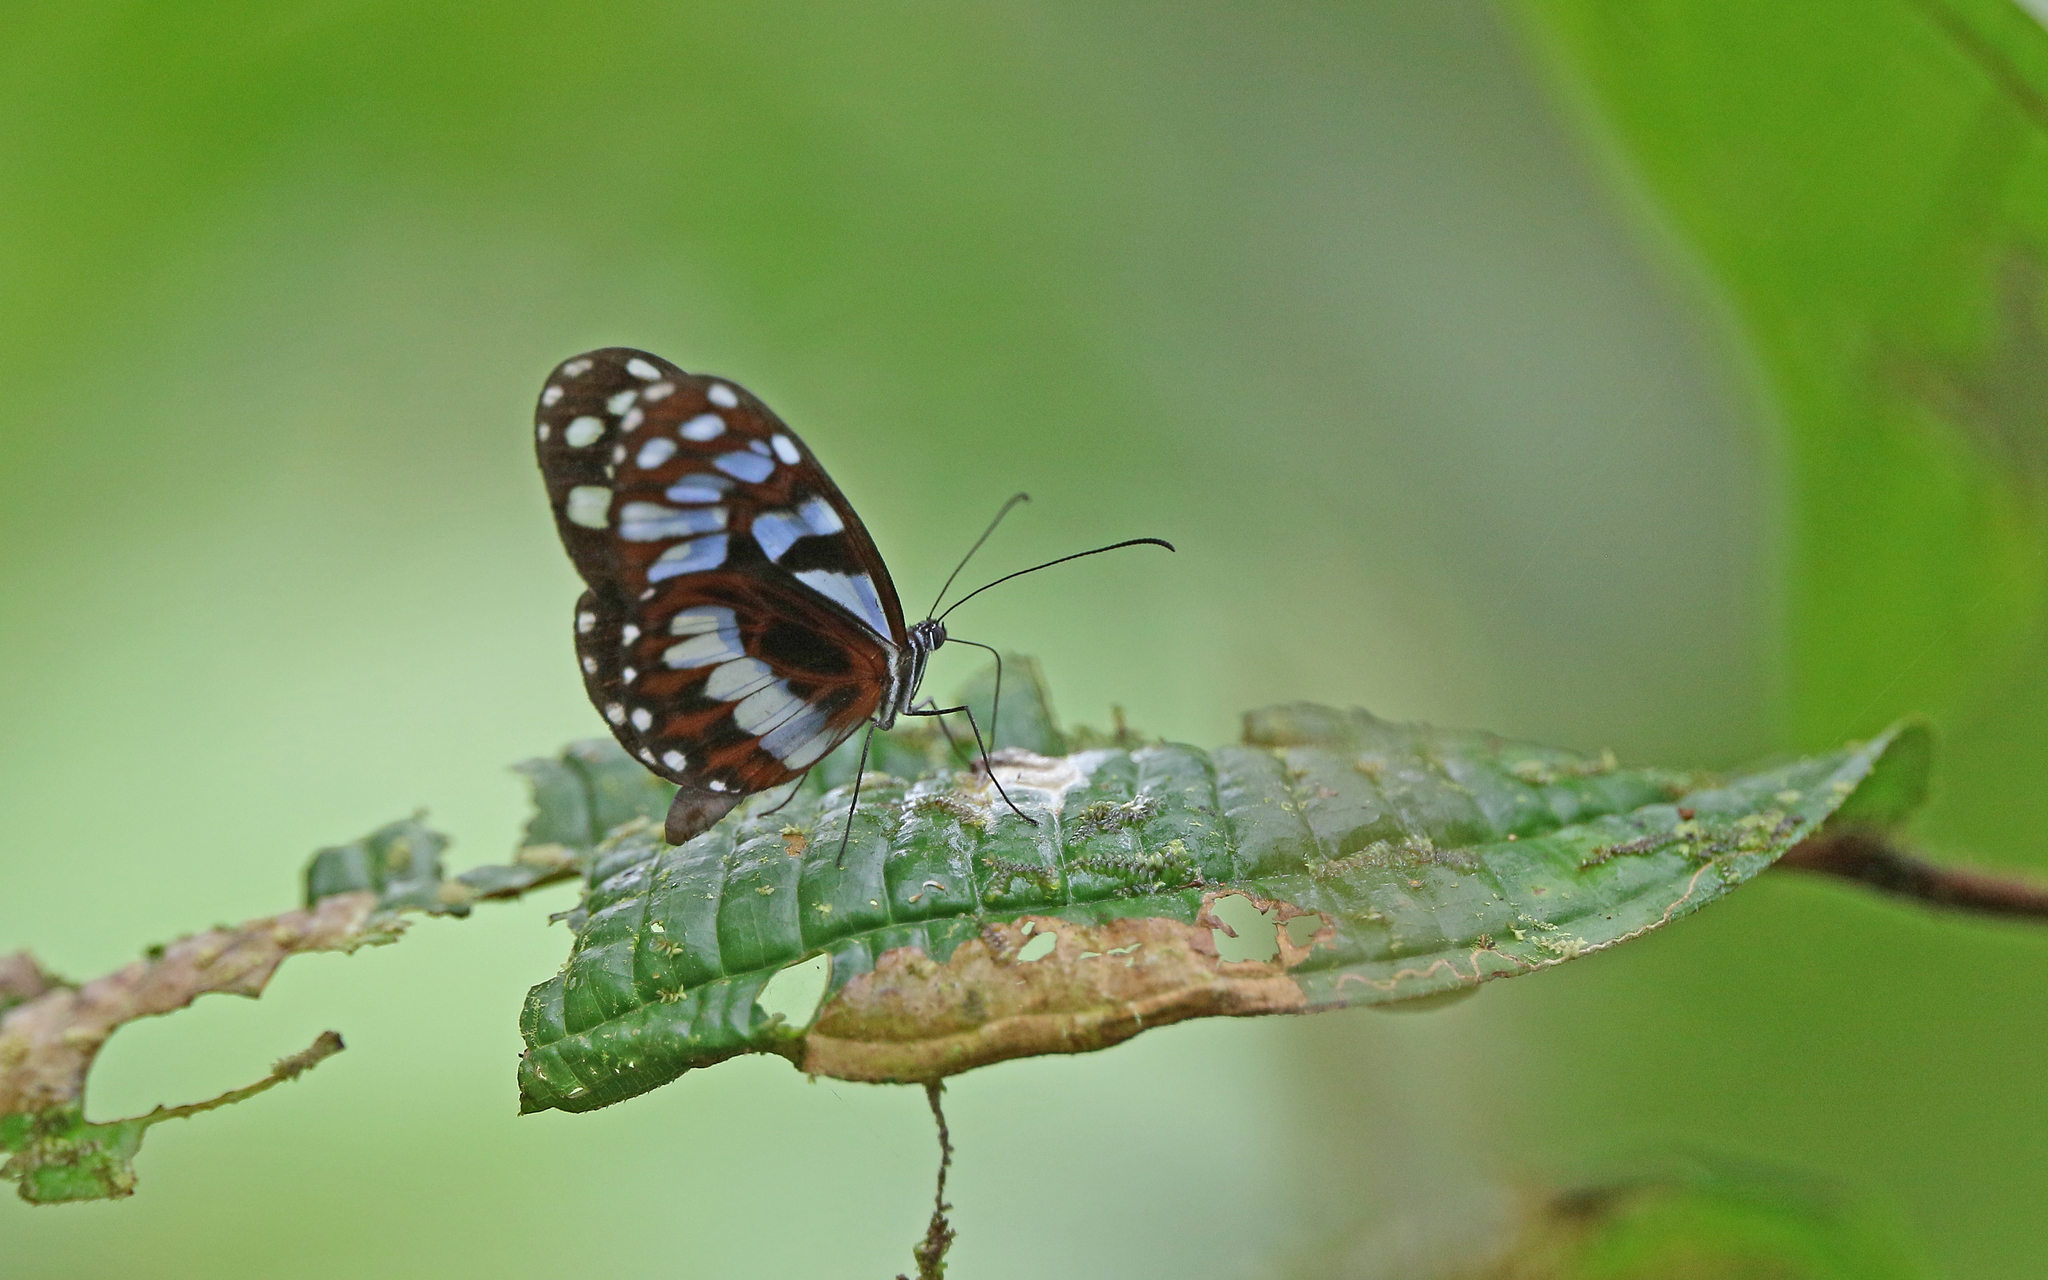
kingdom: Animalia
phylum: Arthropoda
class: Insecta
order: Lepidoptera
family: Nymphalidae
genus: Oleria
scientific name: Oleria cyrene
